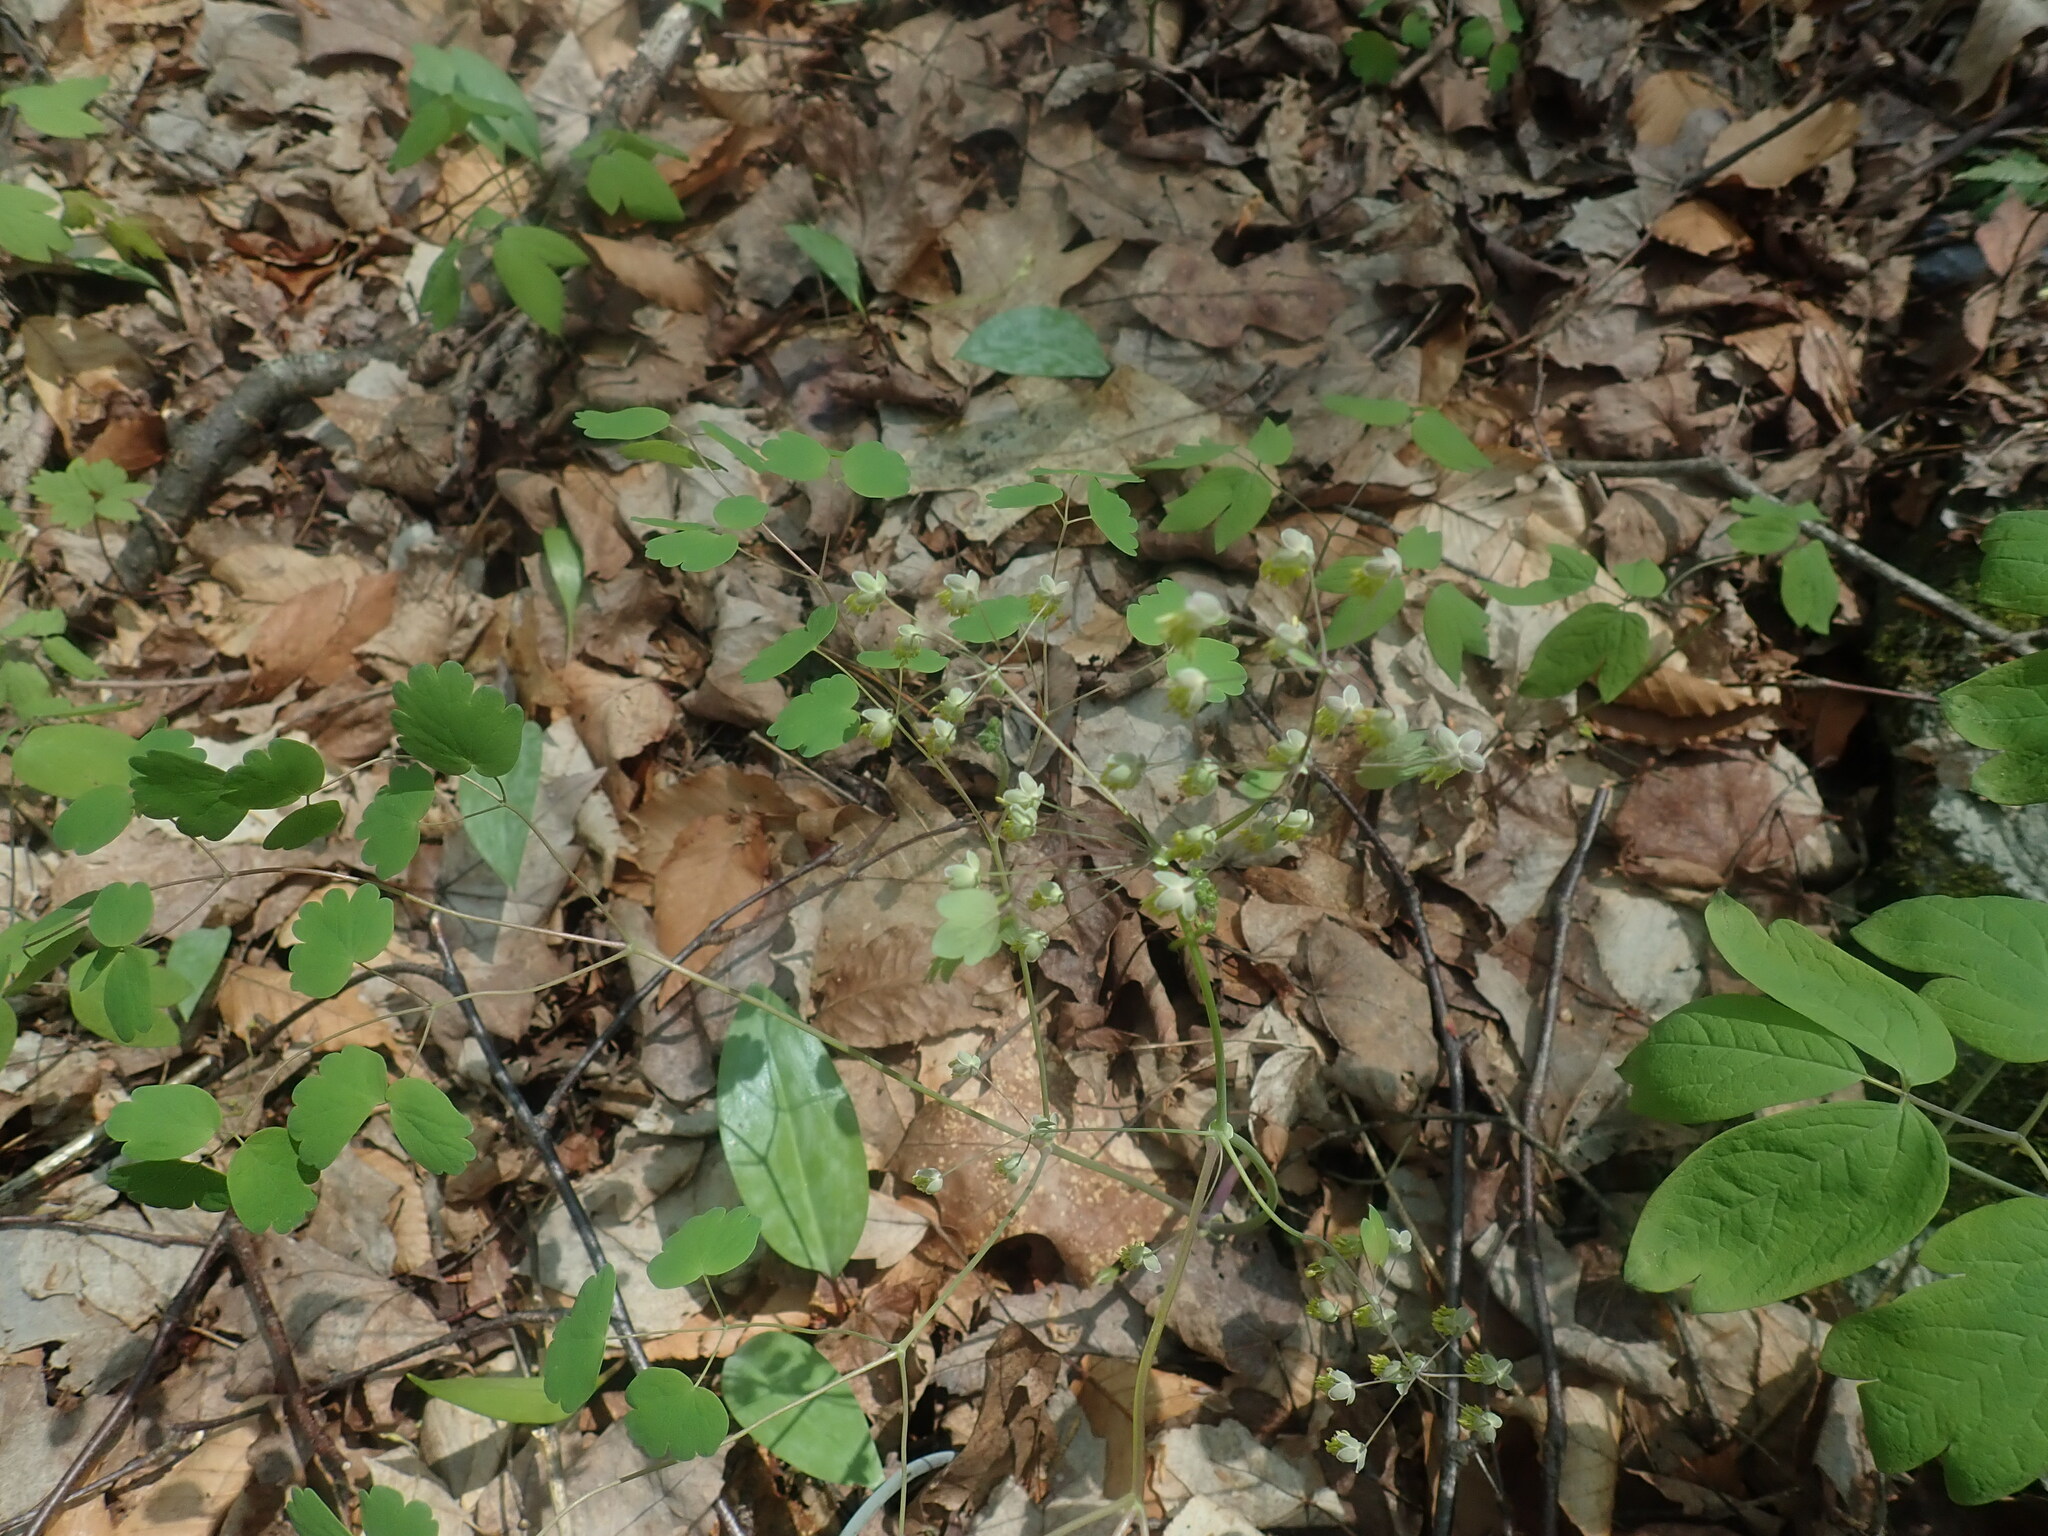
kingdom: Plantae
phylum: Tracheophyta
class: Magnoliopsida
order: Ranunculales
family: Ranunculaceae
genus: Thalictrum
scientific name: Thalictrum dioicum
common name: Early meadow-rue
